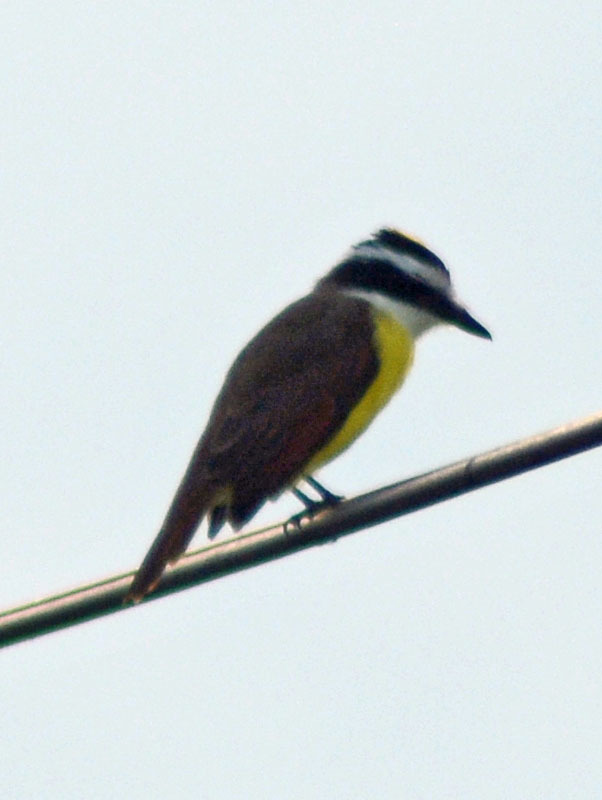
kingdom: Animalia
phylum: Chordata
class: Aves
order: Passeriformes
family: Tyrannidae
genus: Pitangus
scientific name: Pitangus sulphuratus
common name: Great kiskadee
